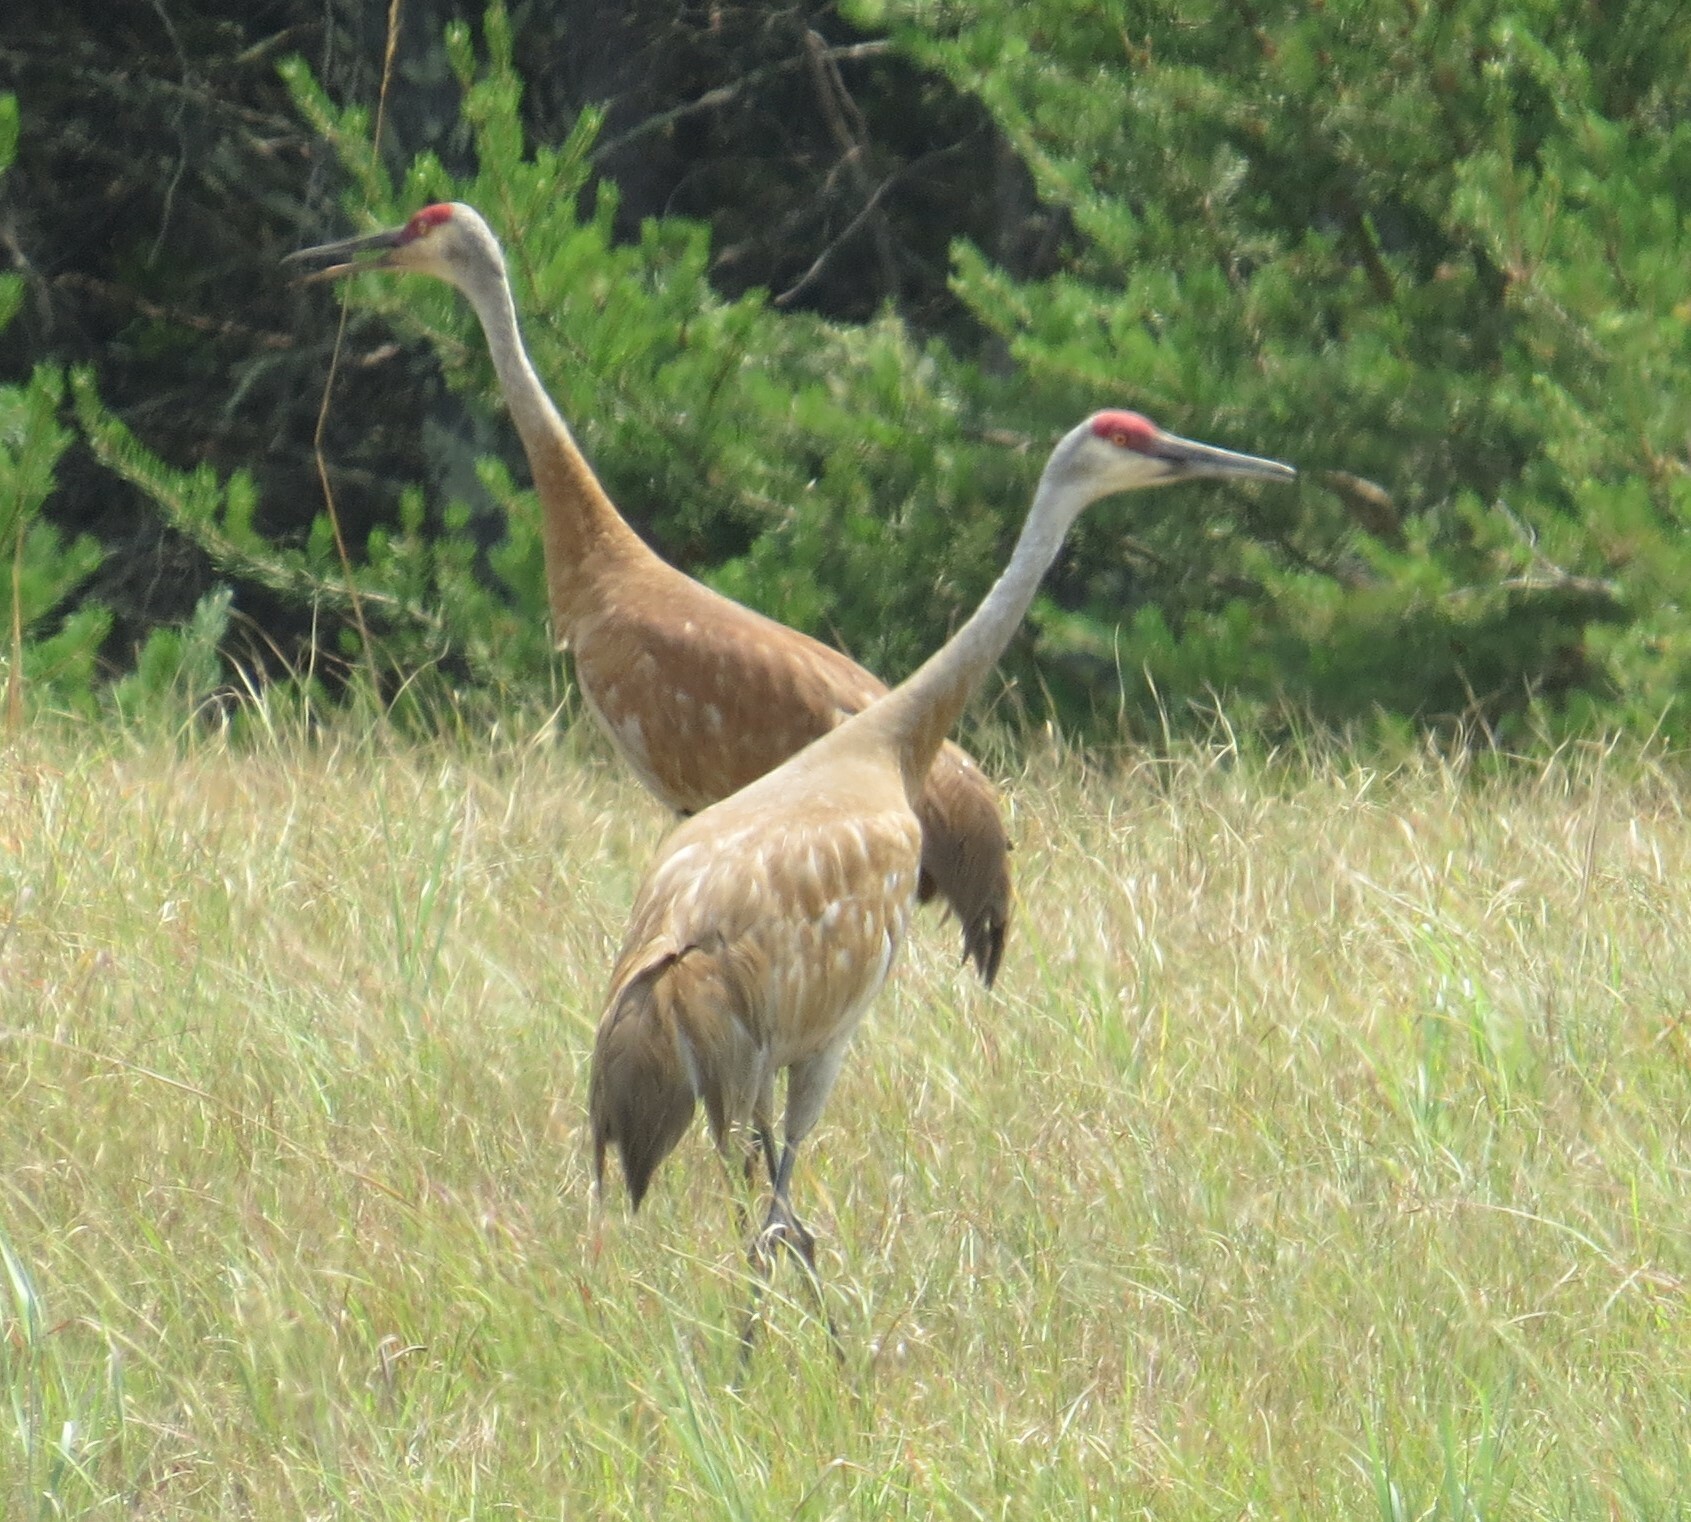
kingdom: Animalia
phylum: Chordata
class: Aves
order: Gruiformes
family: Gruidae
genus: Grus
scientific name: Grus canadensis
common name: Sandhill crane
